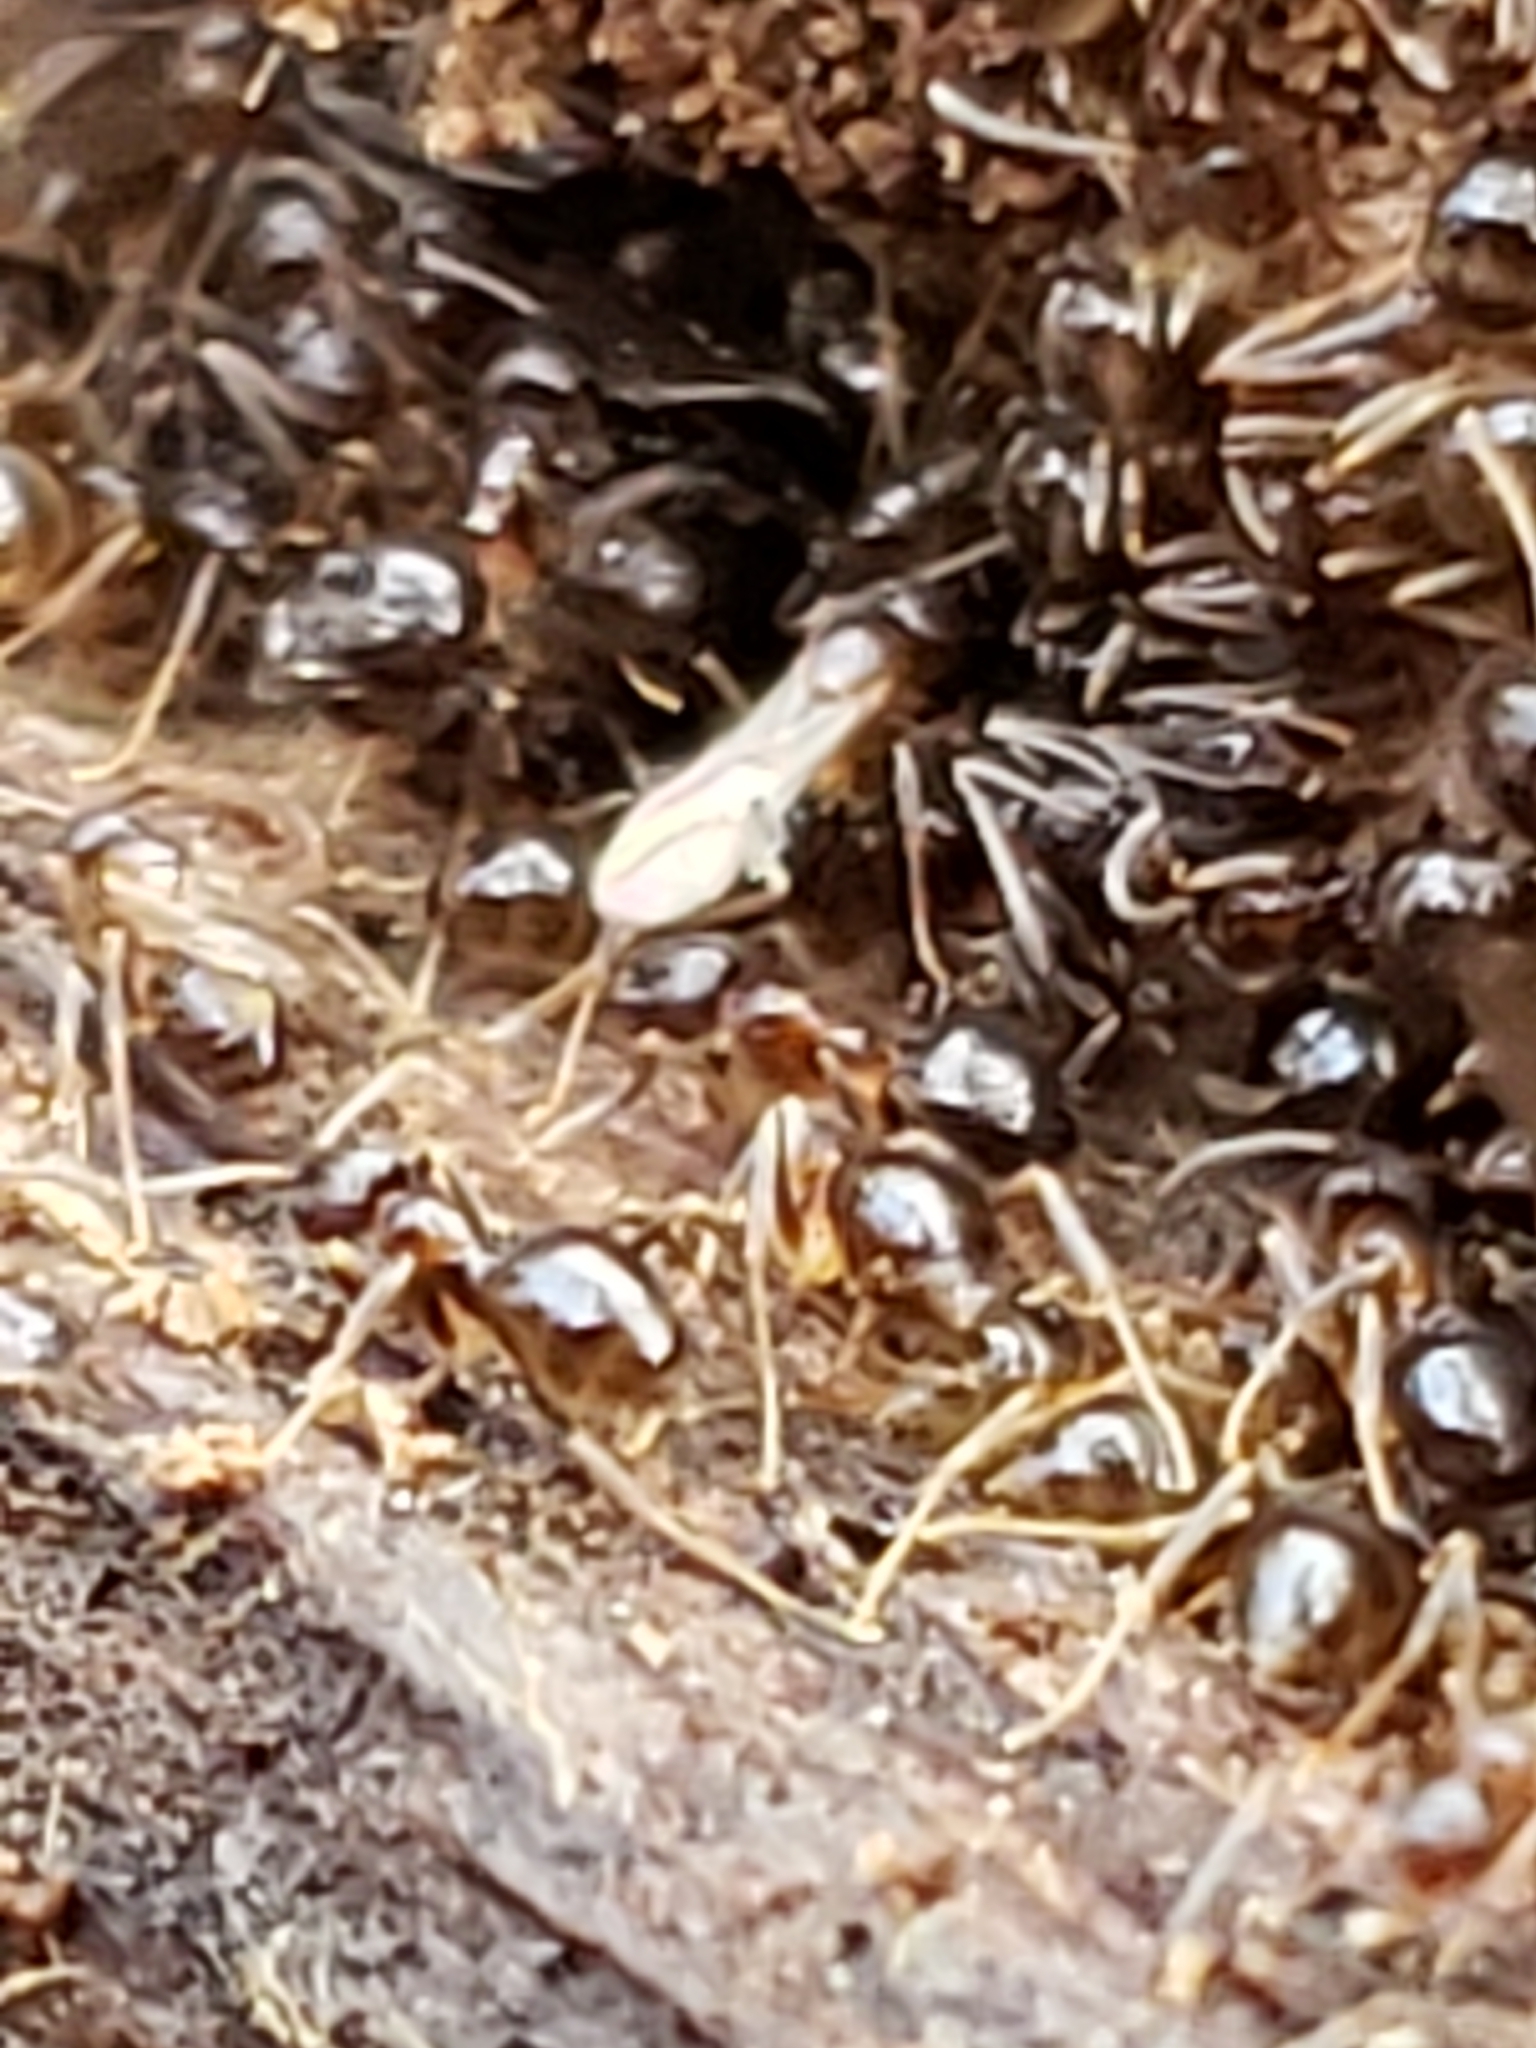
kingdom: Animalia
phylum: Arthropoda
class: Insecta
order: Hymenoptera
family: Formicidae
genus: Paratrechina
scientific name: Paratrechina flavipes
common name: Eastern asian formicine ant
